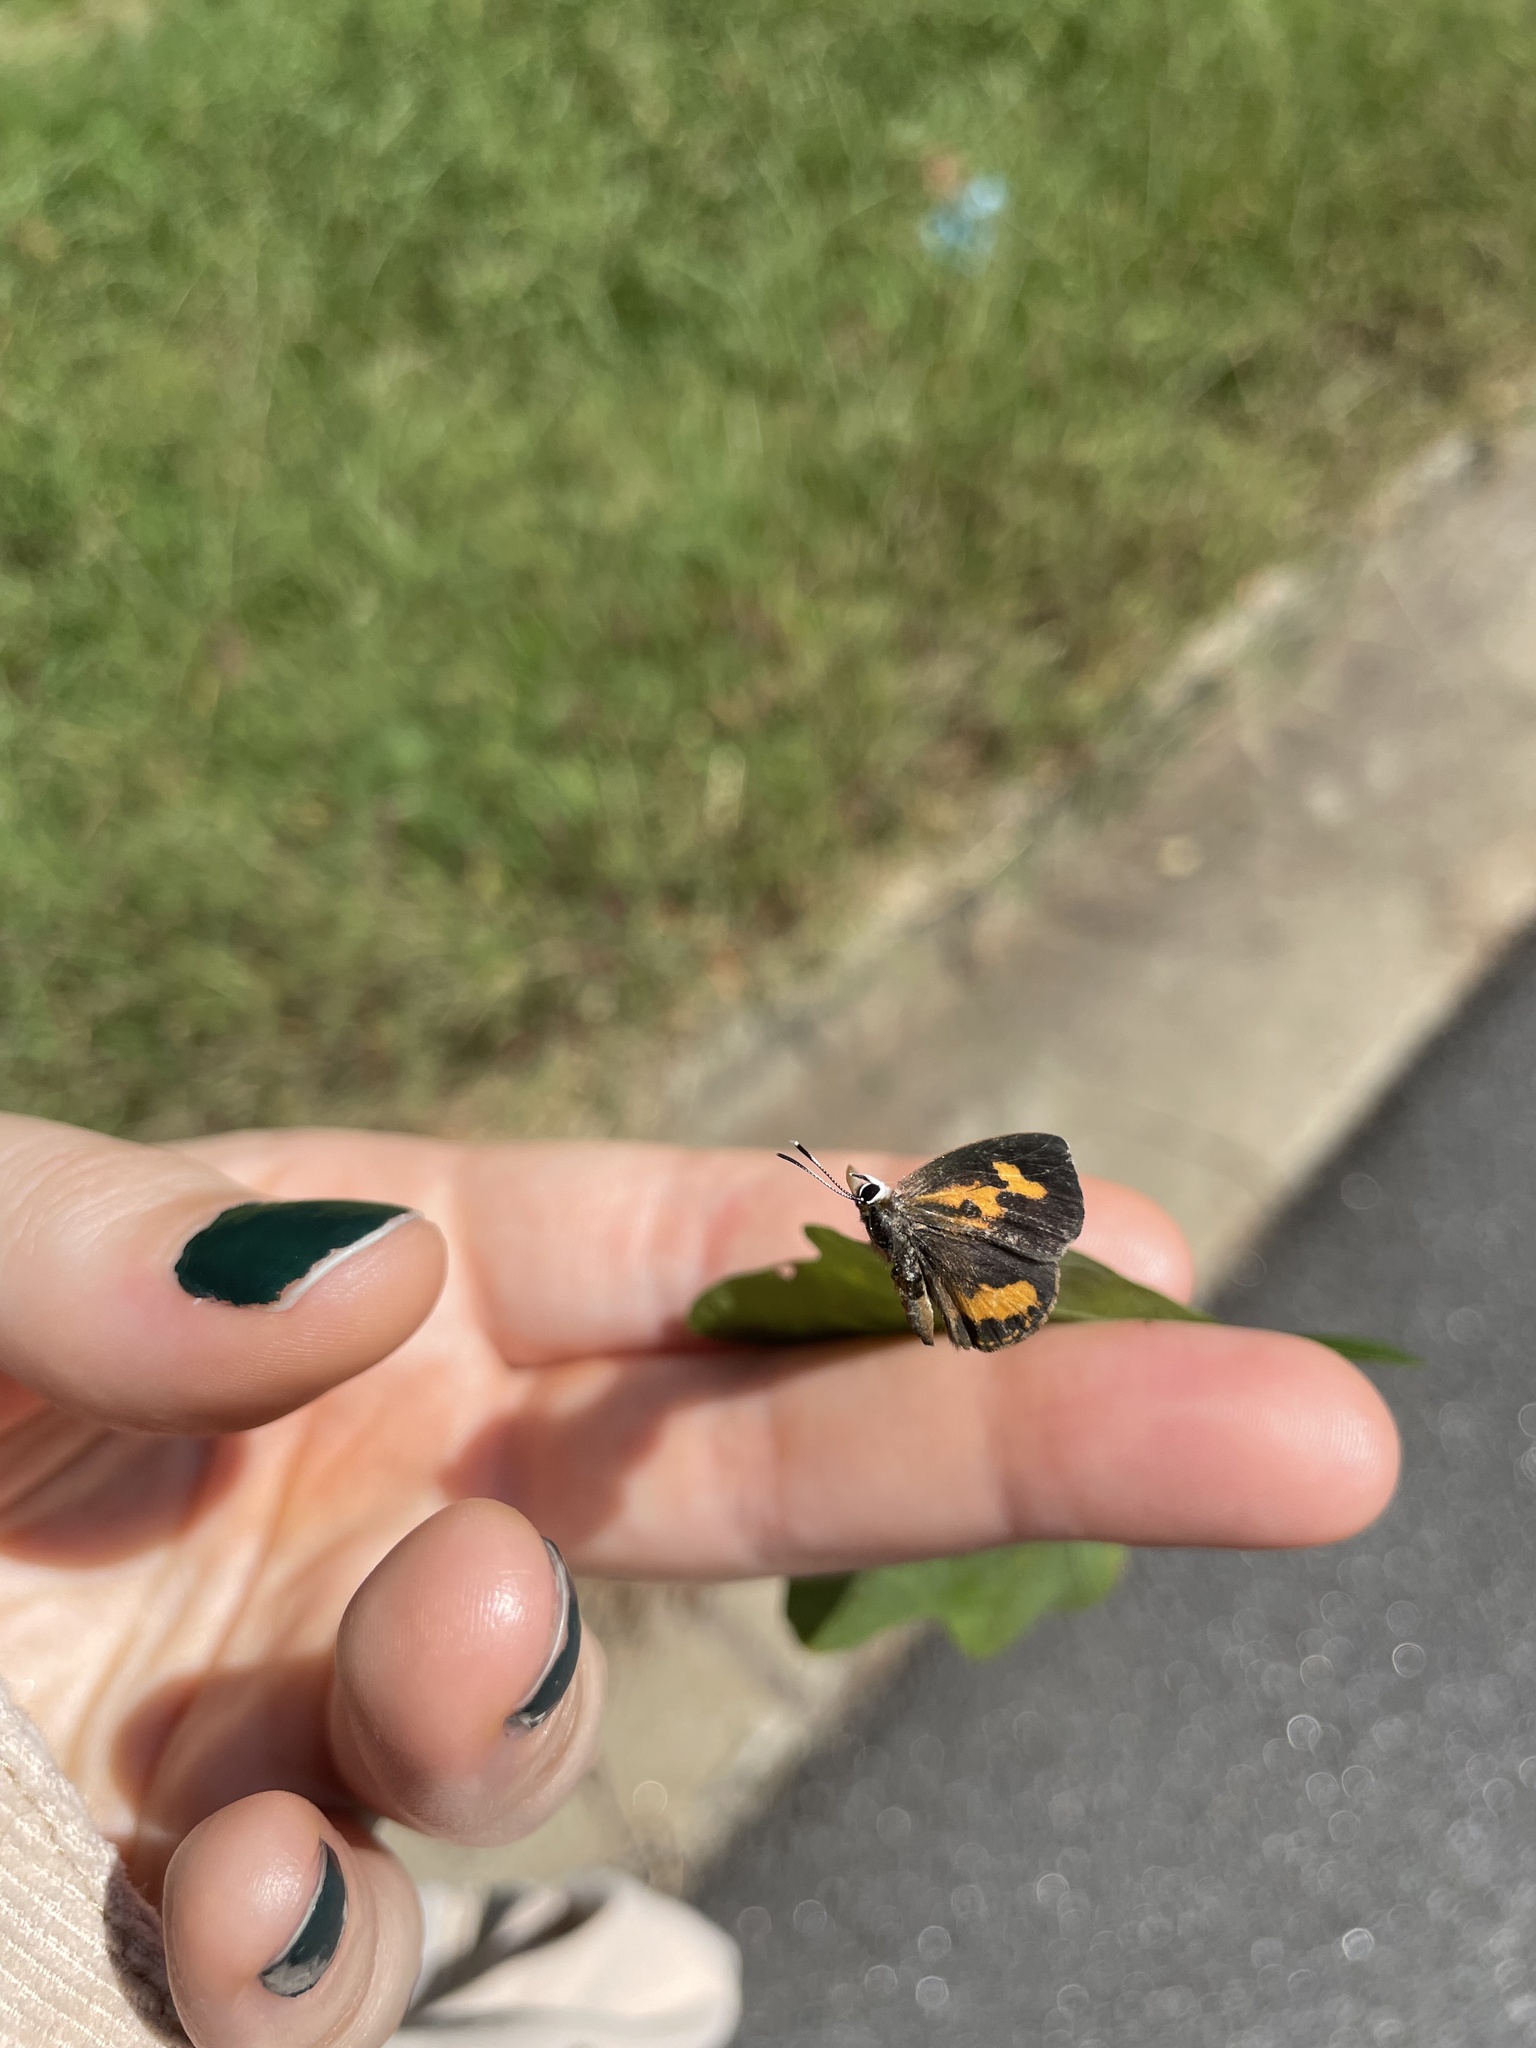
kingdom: Animalia
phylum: Arthropoda
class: Insecta
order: Lepidoptera
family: Lycaenidae
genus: Feniseca
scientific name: Feniseca tarquinius
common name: Harvester
